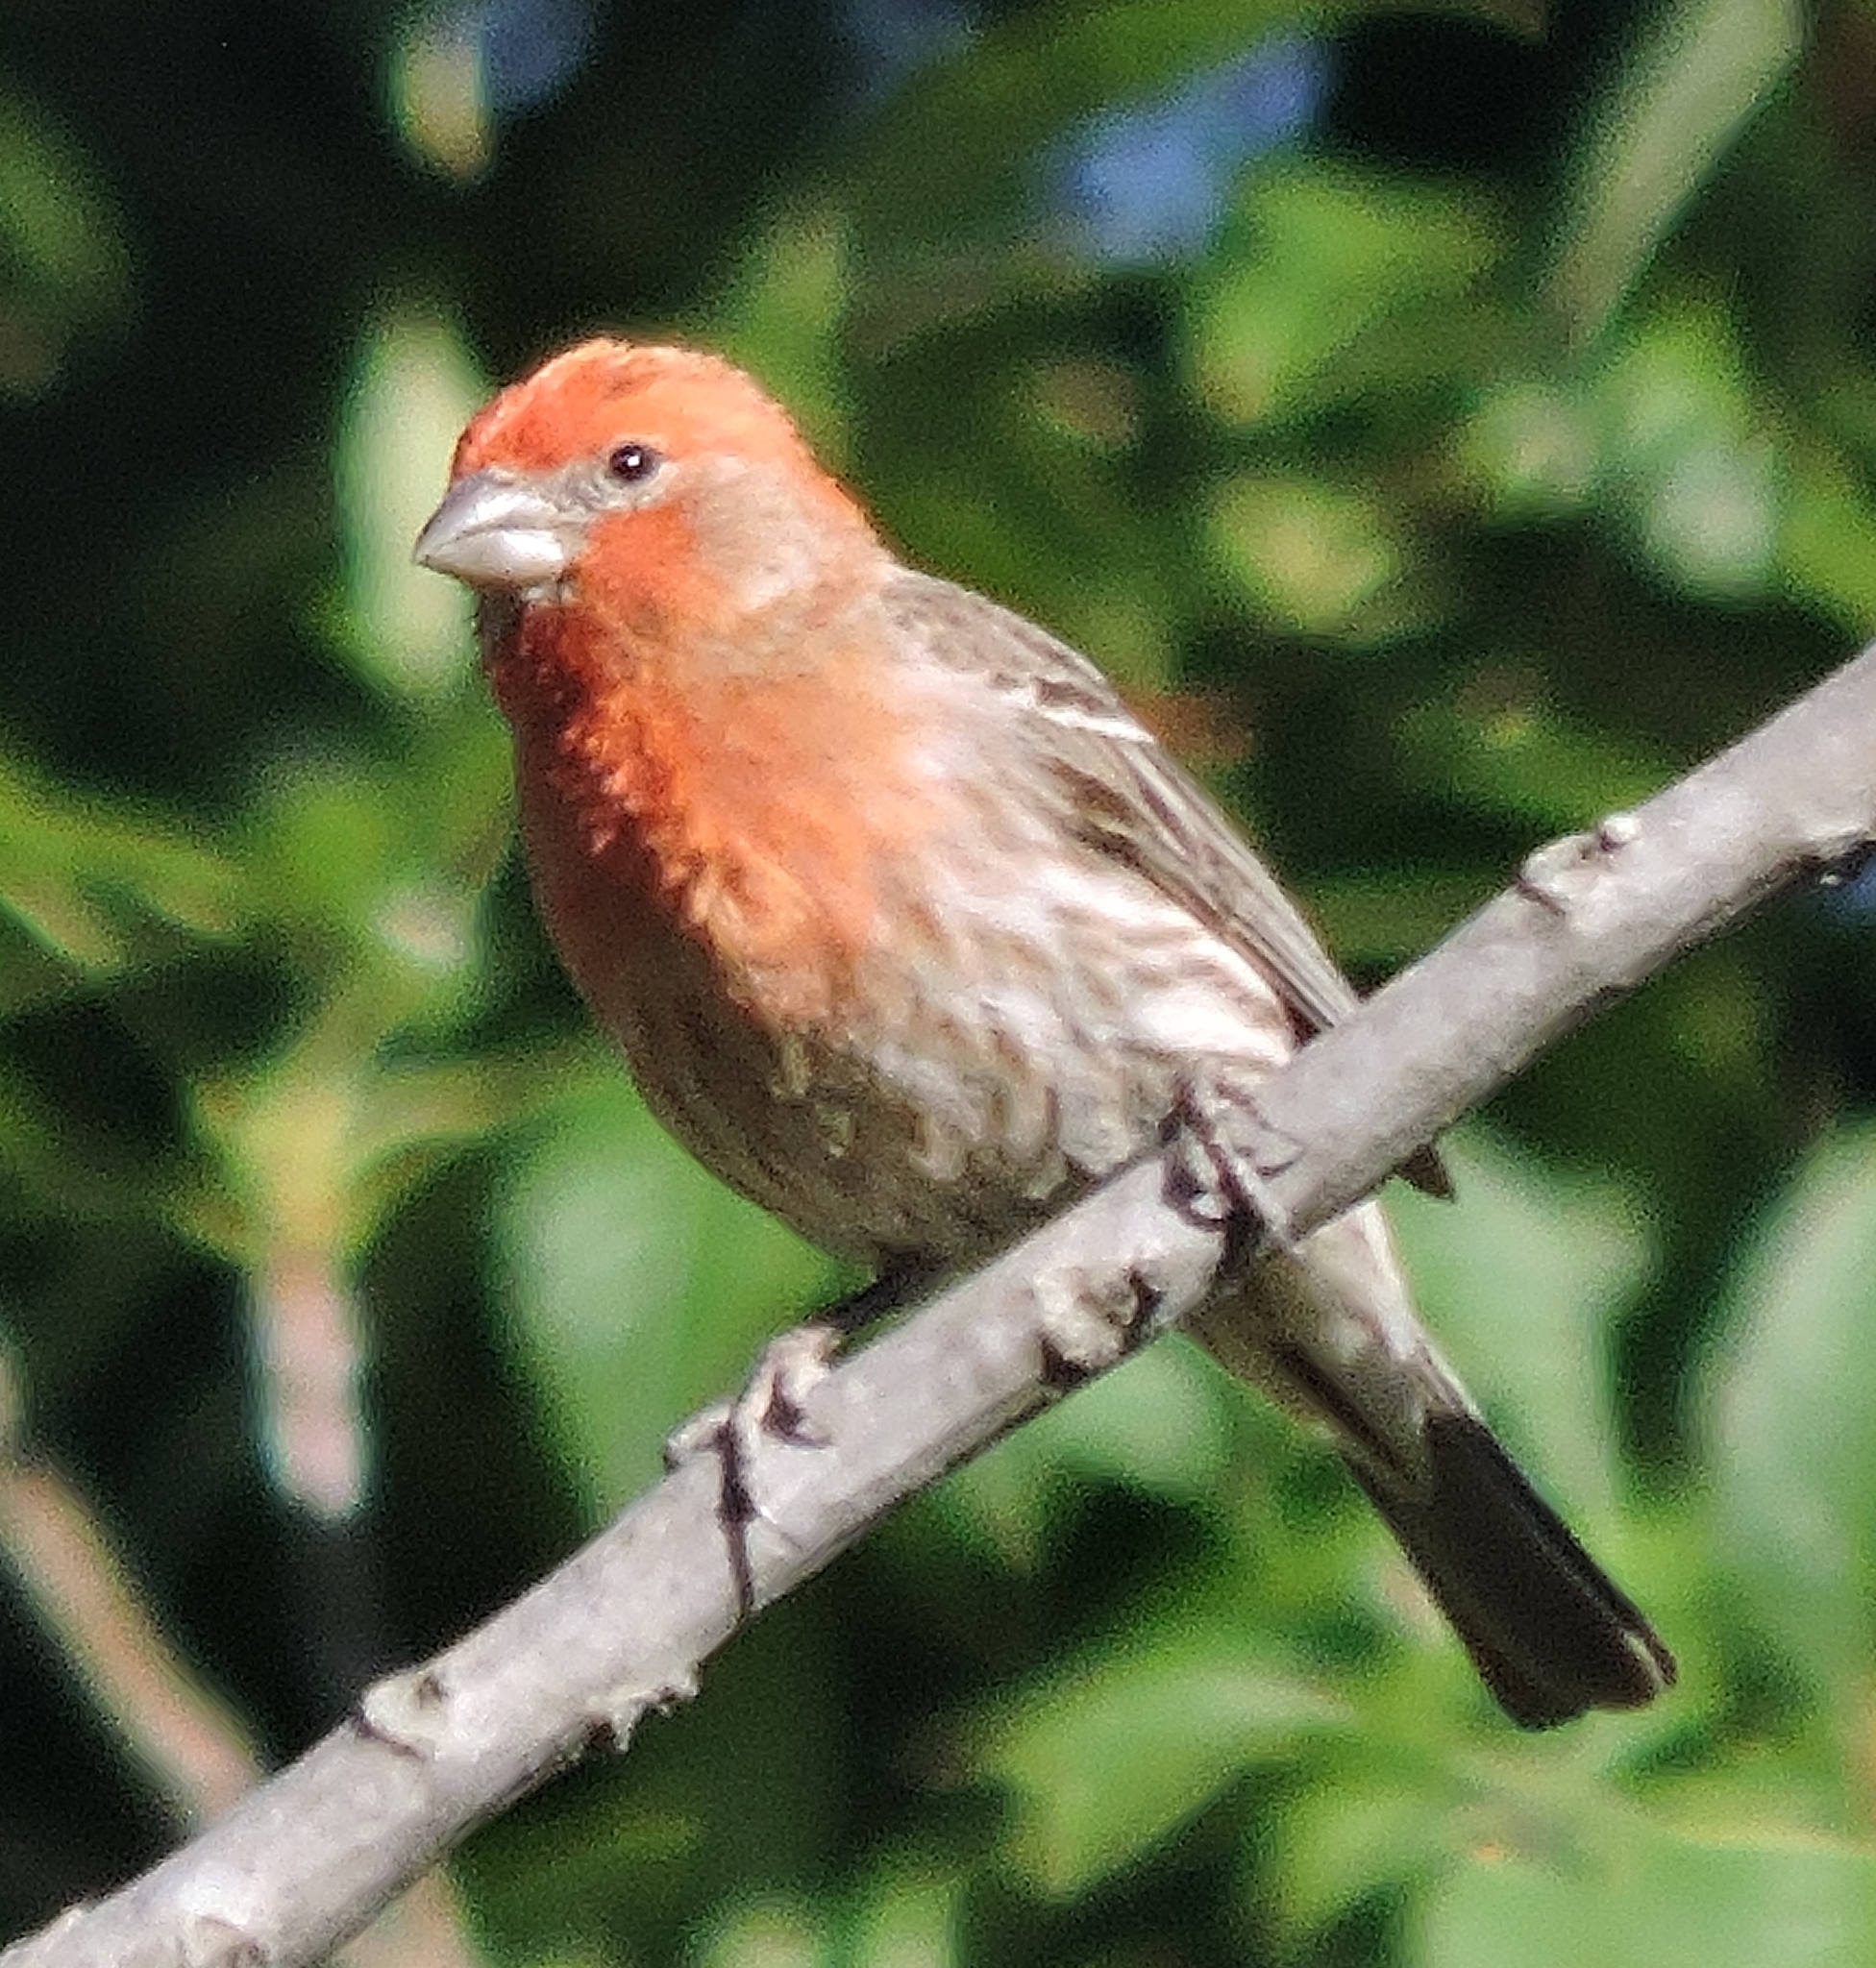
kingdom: Animalia
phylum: Chordata
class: Aves
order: Passeriformes
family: Fringillidae
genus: Haemorhous
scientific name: Haemorhous mexicanus
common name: House finch
